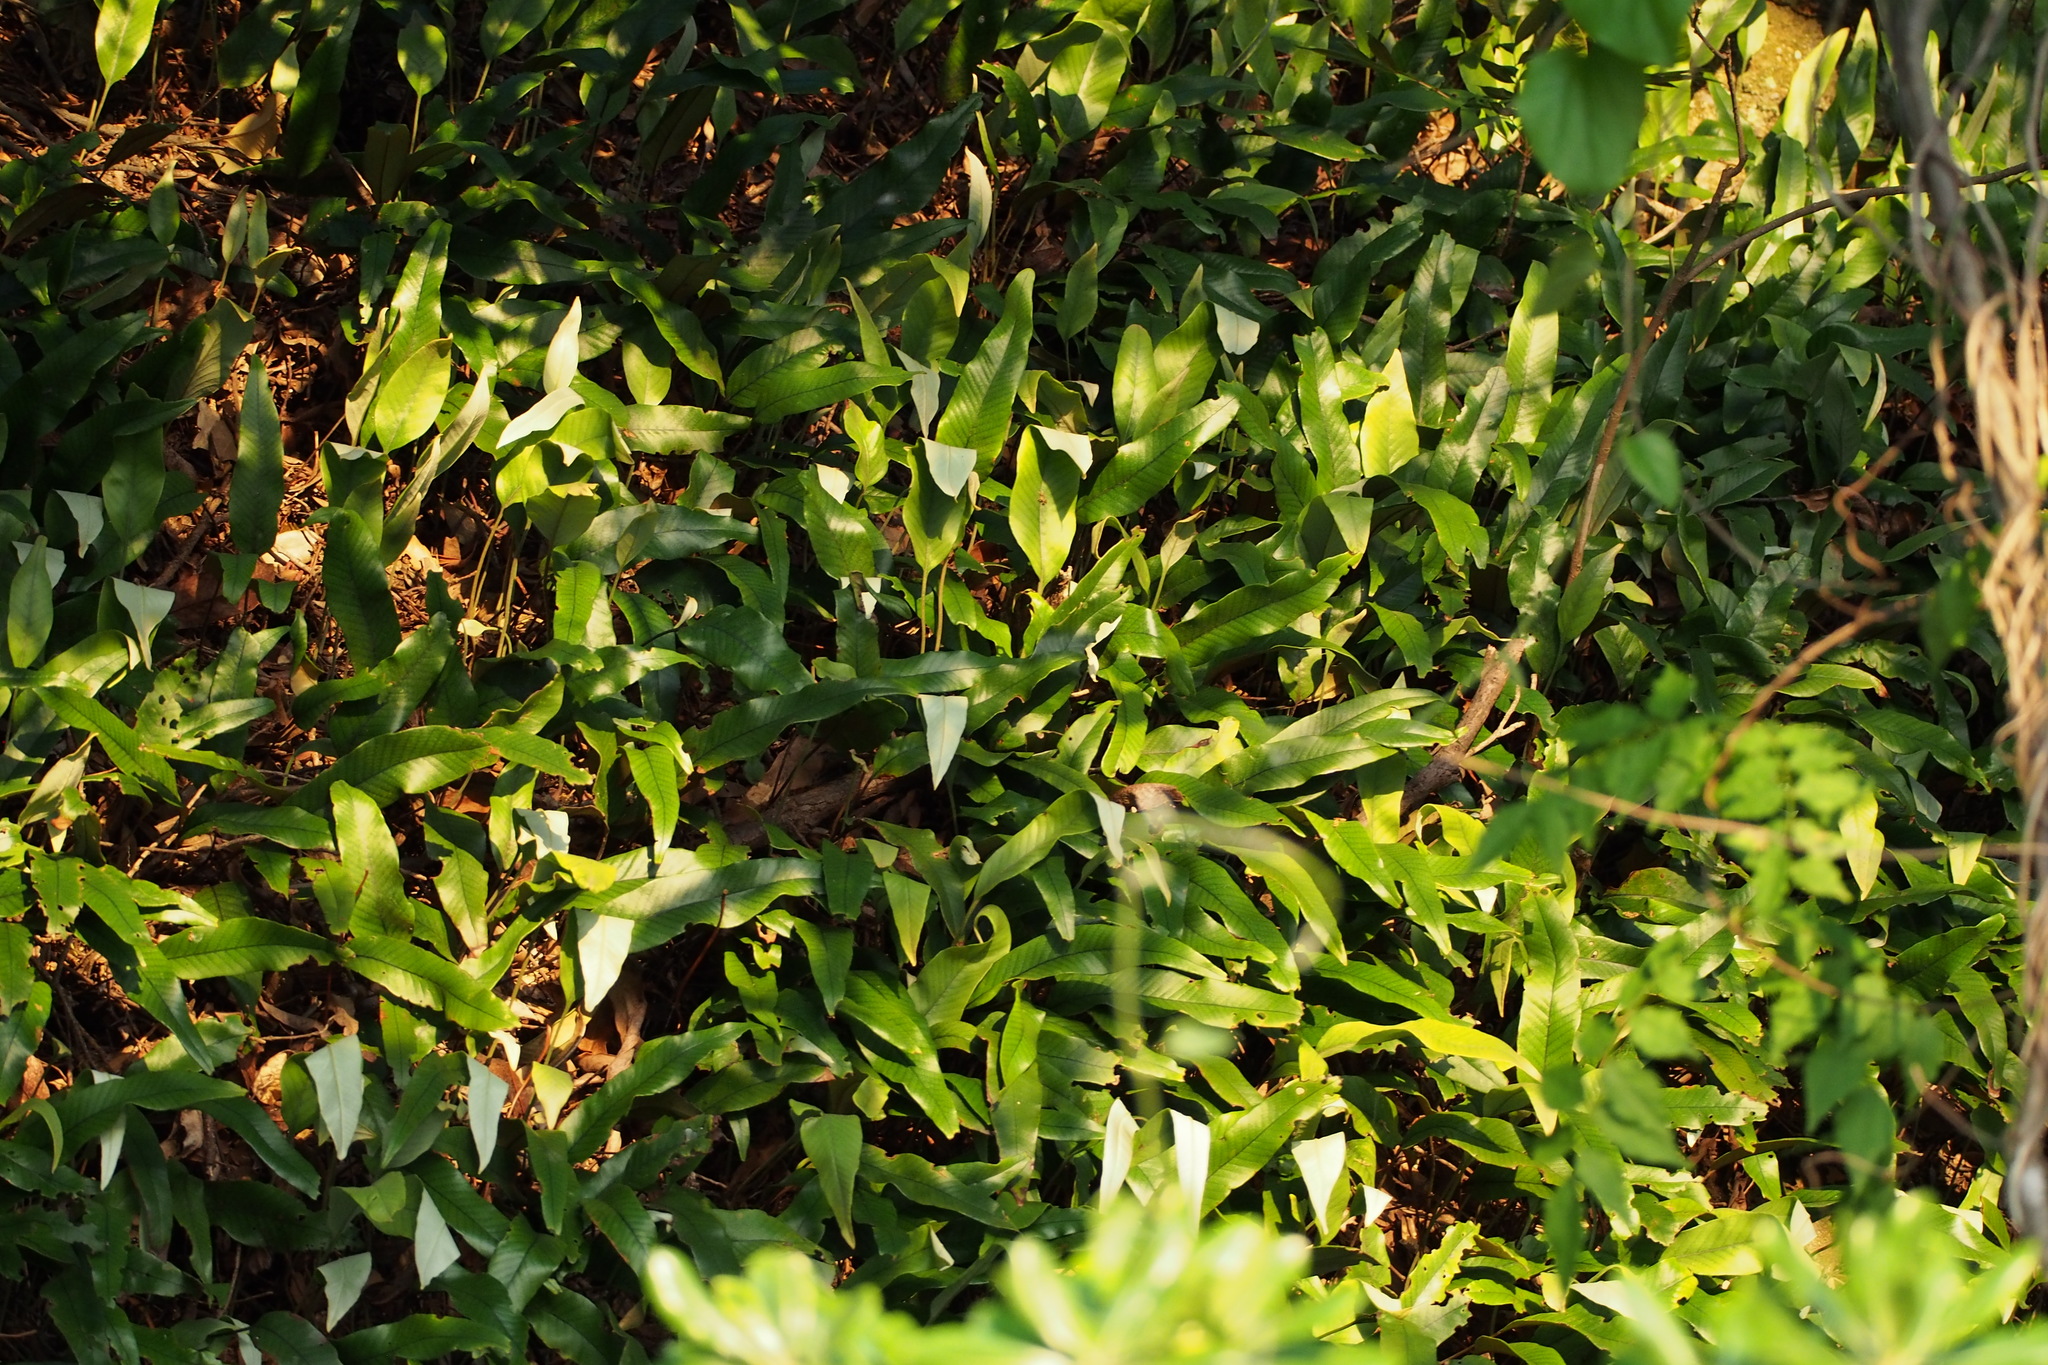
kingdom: Plantae
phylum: Tracheophyta
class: Polypodiopsida
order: Polypodiales
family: Polypodiaceae
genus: Pyrrosia
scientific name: Pyrrosia lingua
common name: Felt fern
